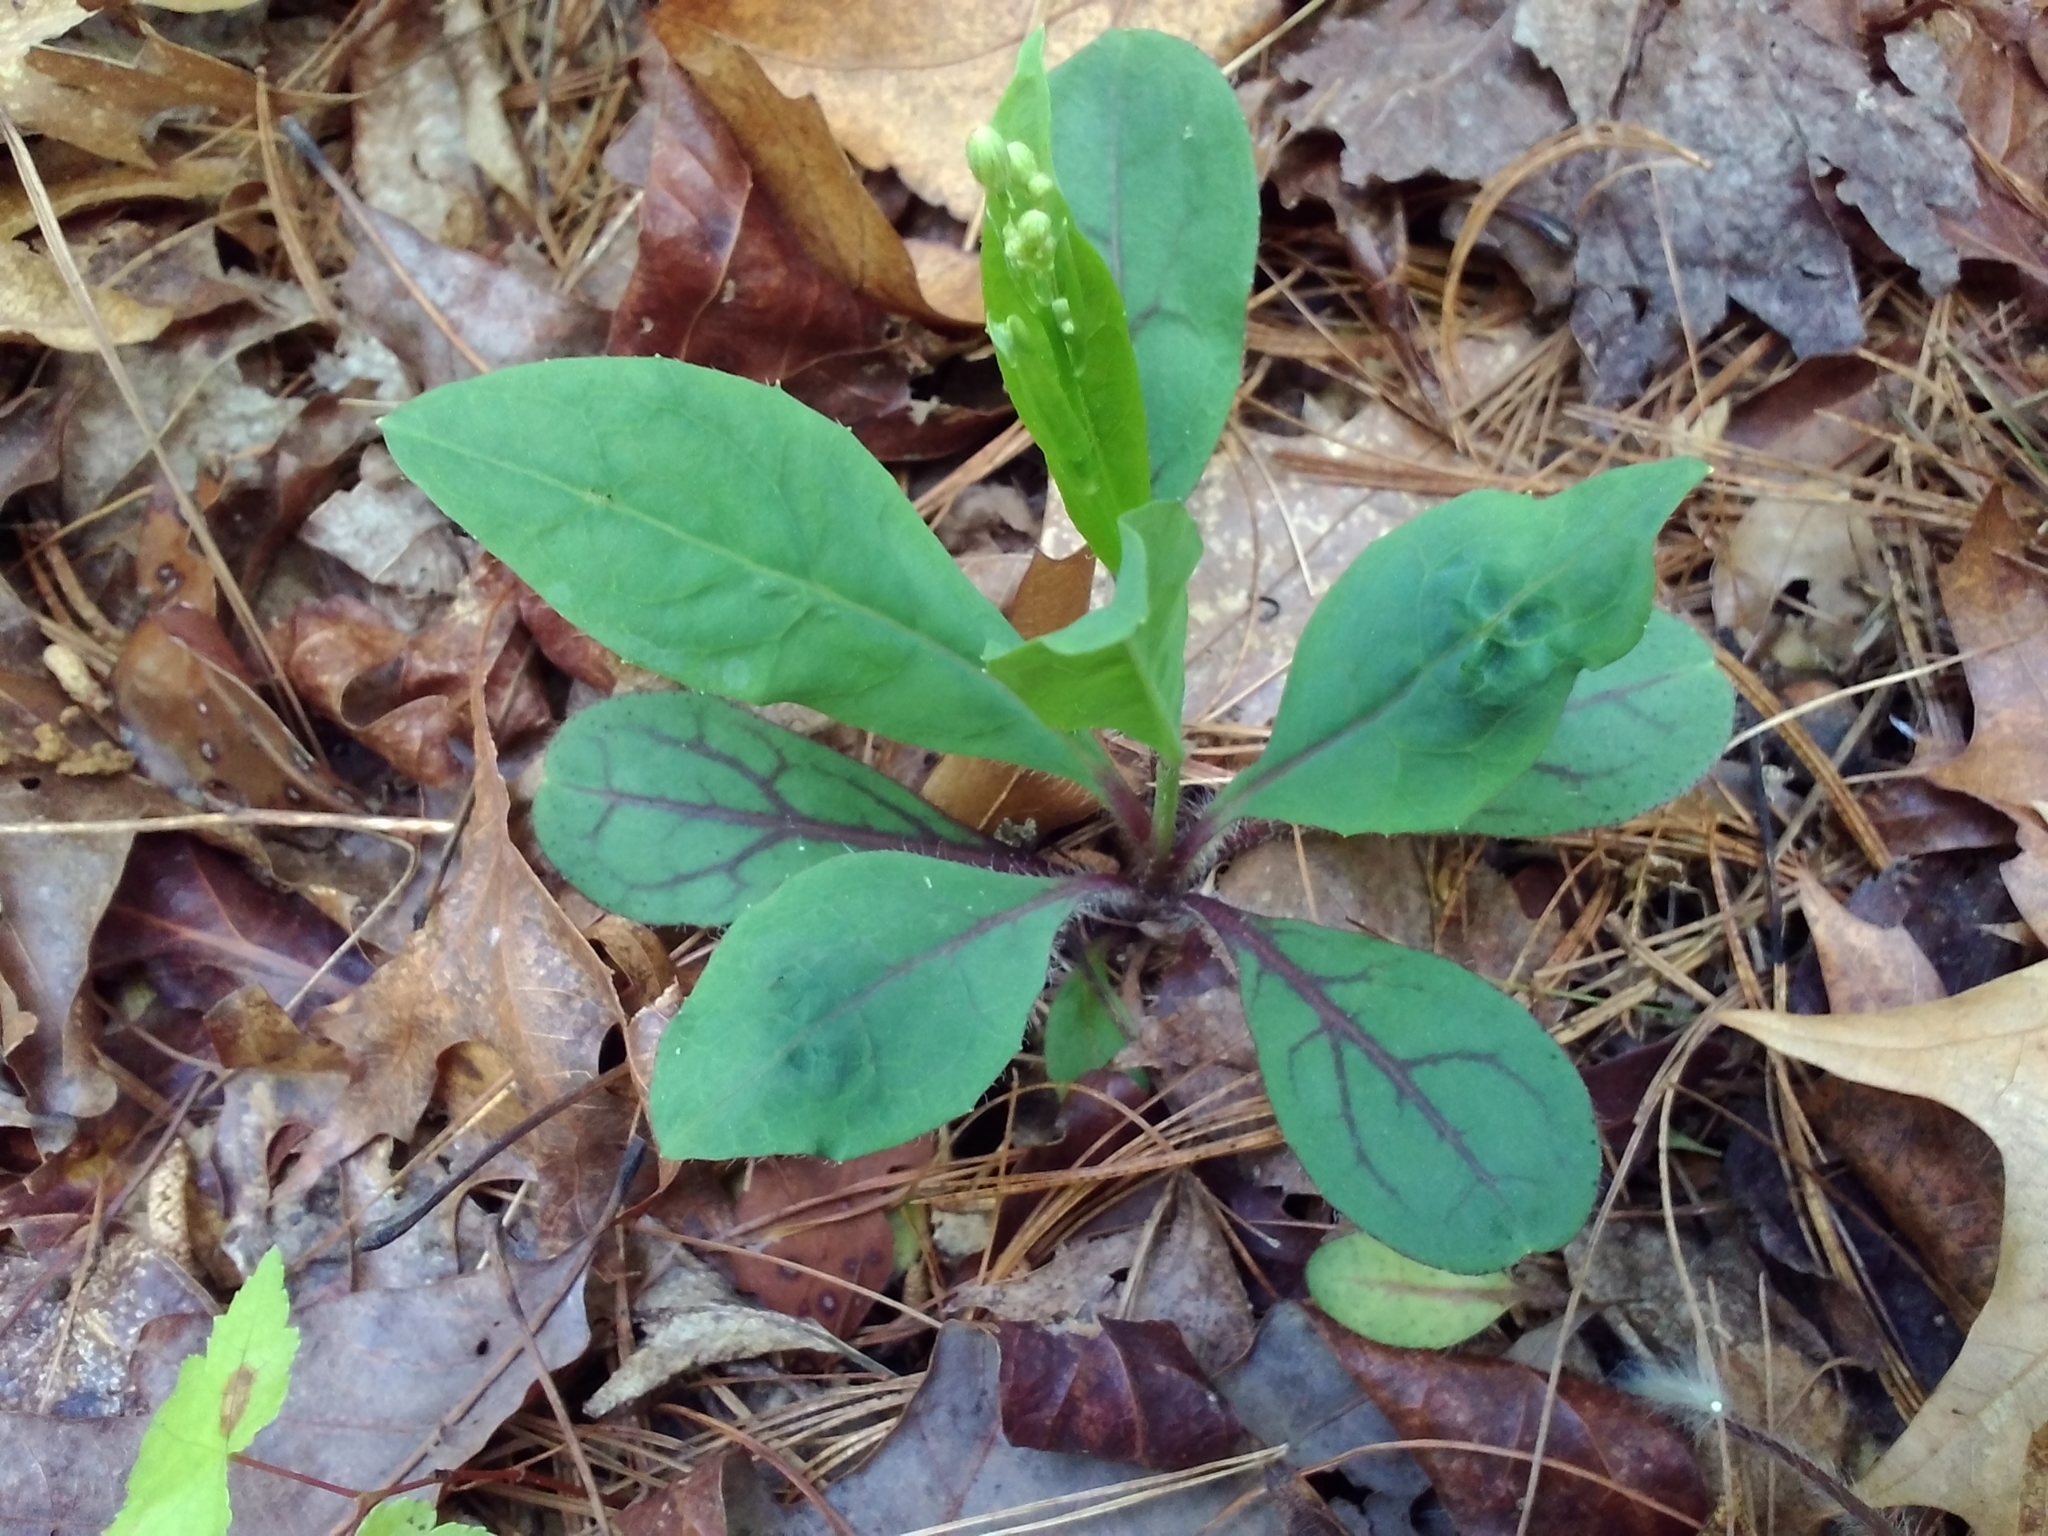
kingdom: Plantae
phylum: Tracheophyta
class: Magnoliopsida
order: Asterales
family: Asteraceae
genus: Hieracium
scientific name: Hieracium venosum
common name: Rattlesnake hawkweed
